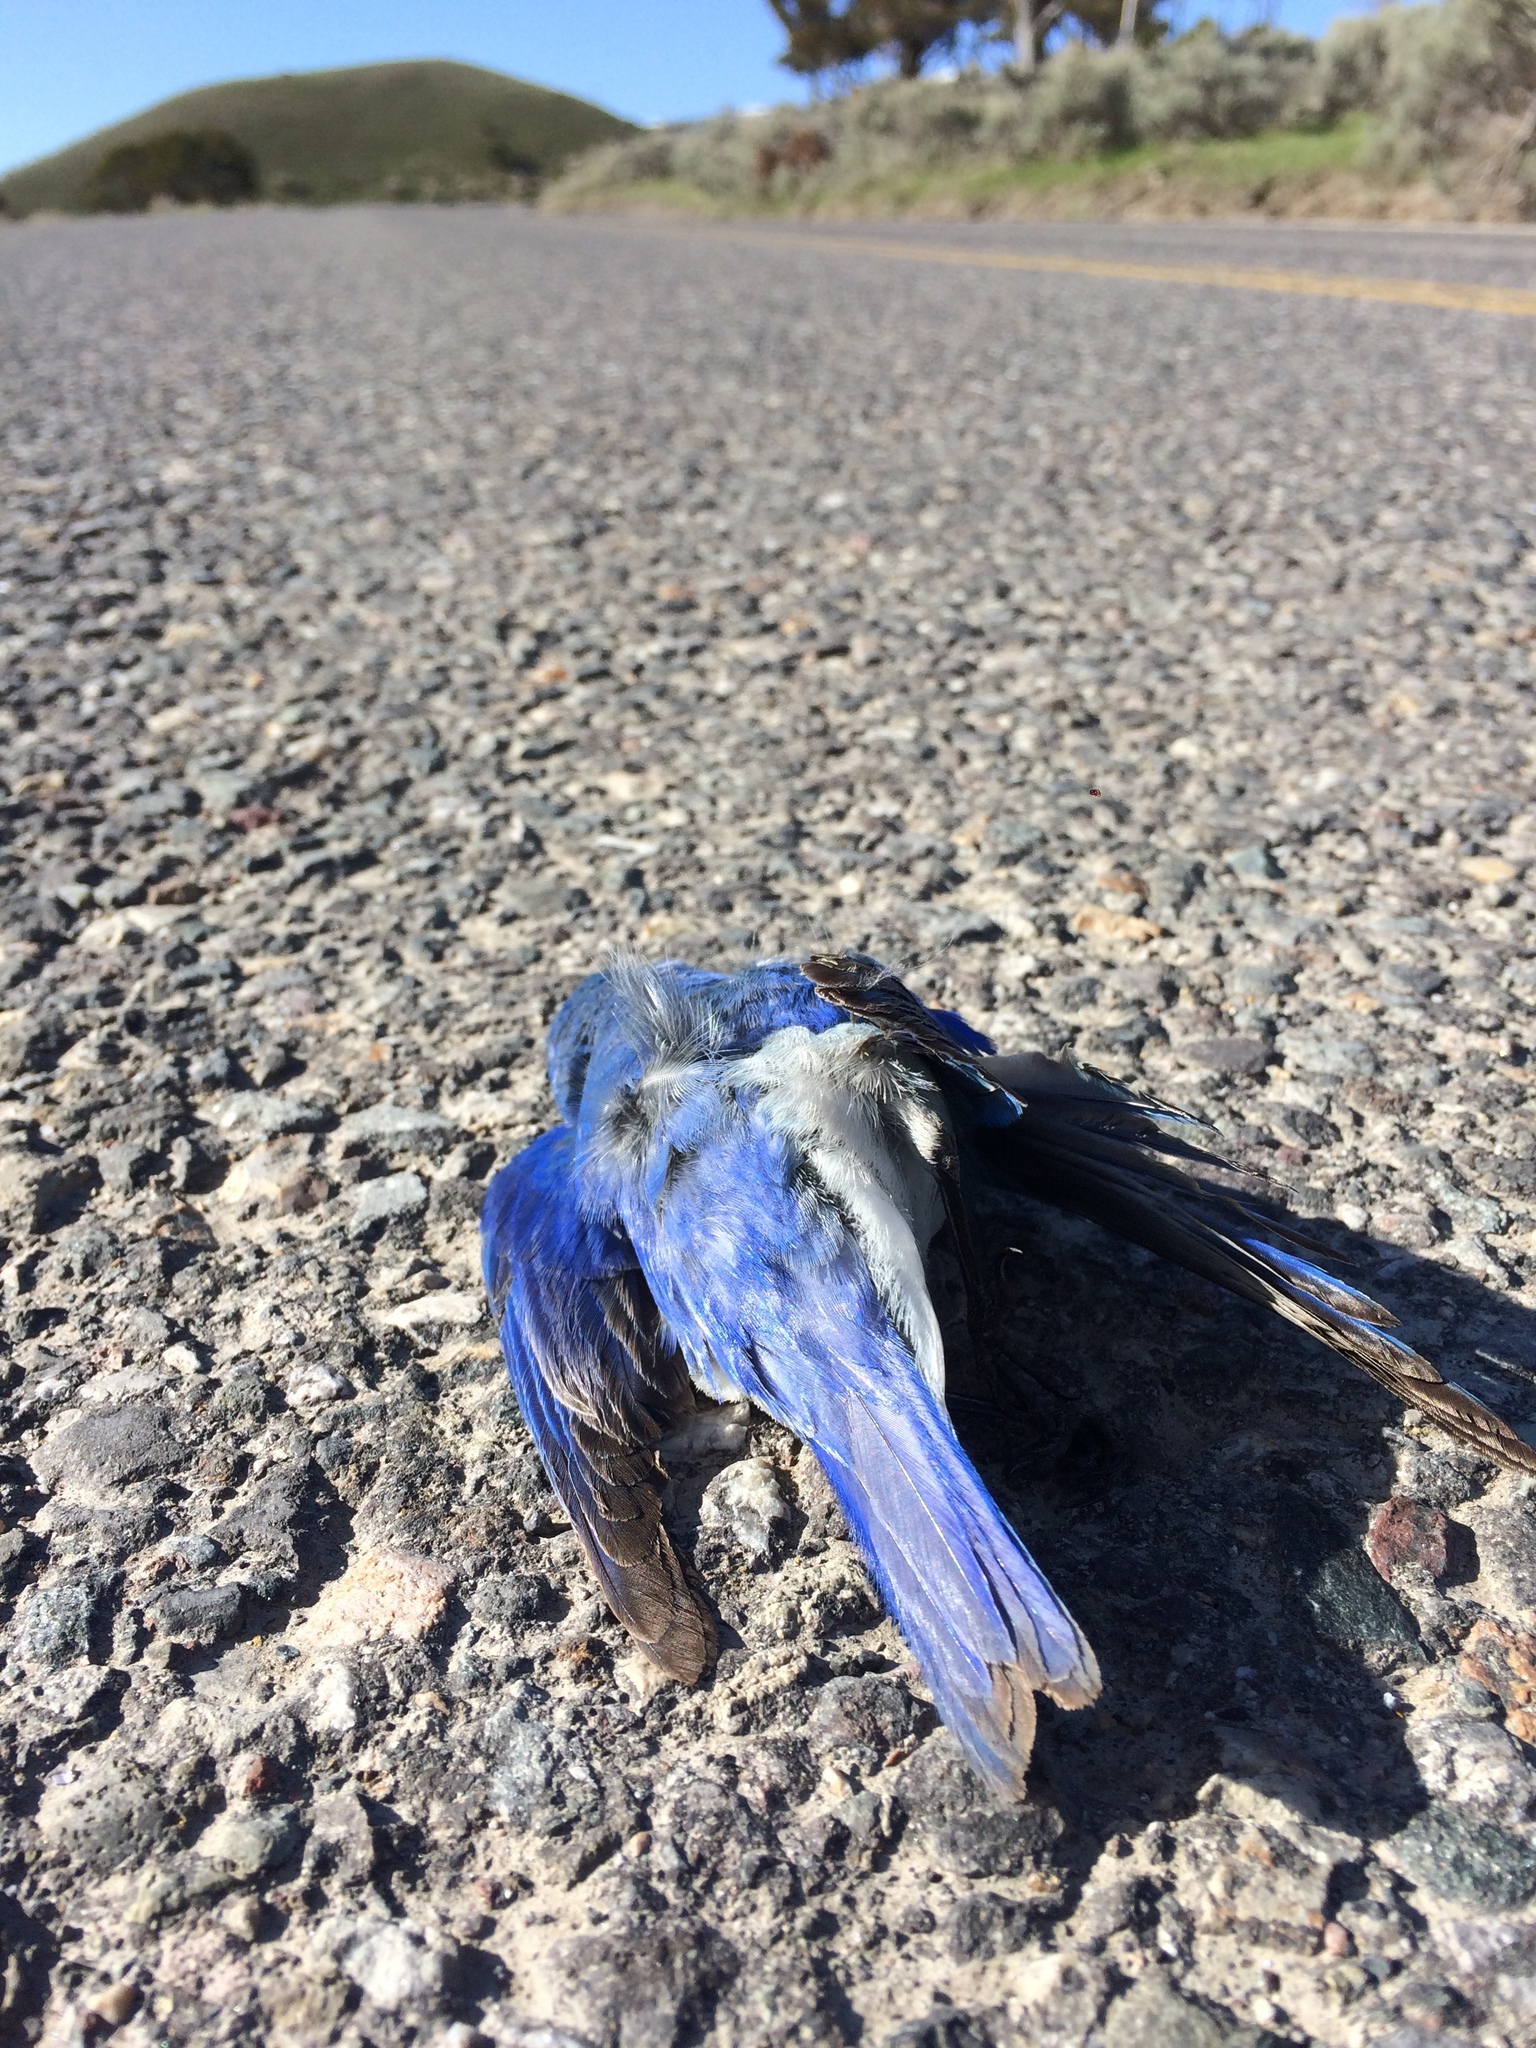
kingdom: Animalia
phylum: Chordata
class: Aves
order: Passeriformes
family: Turdidae
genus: Sialia
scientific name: Sialia currucoides
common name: Mountain bluebird
